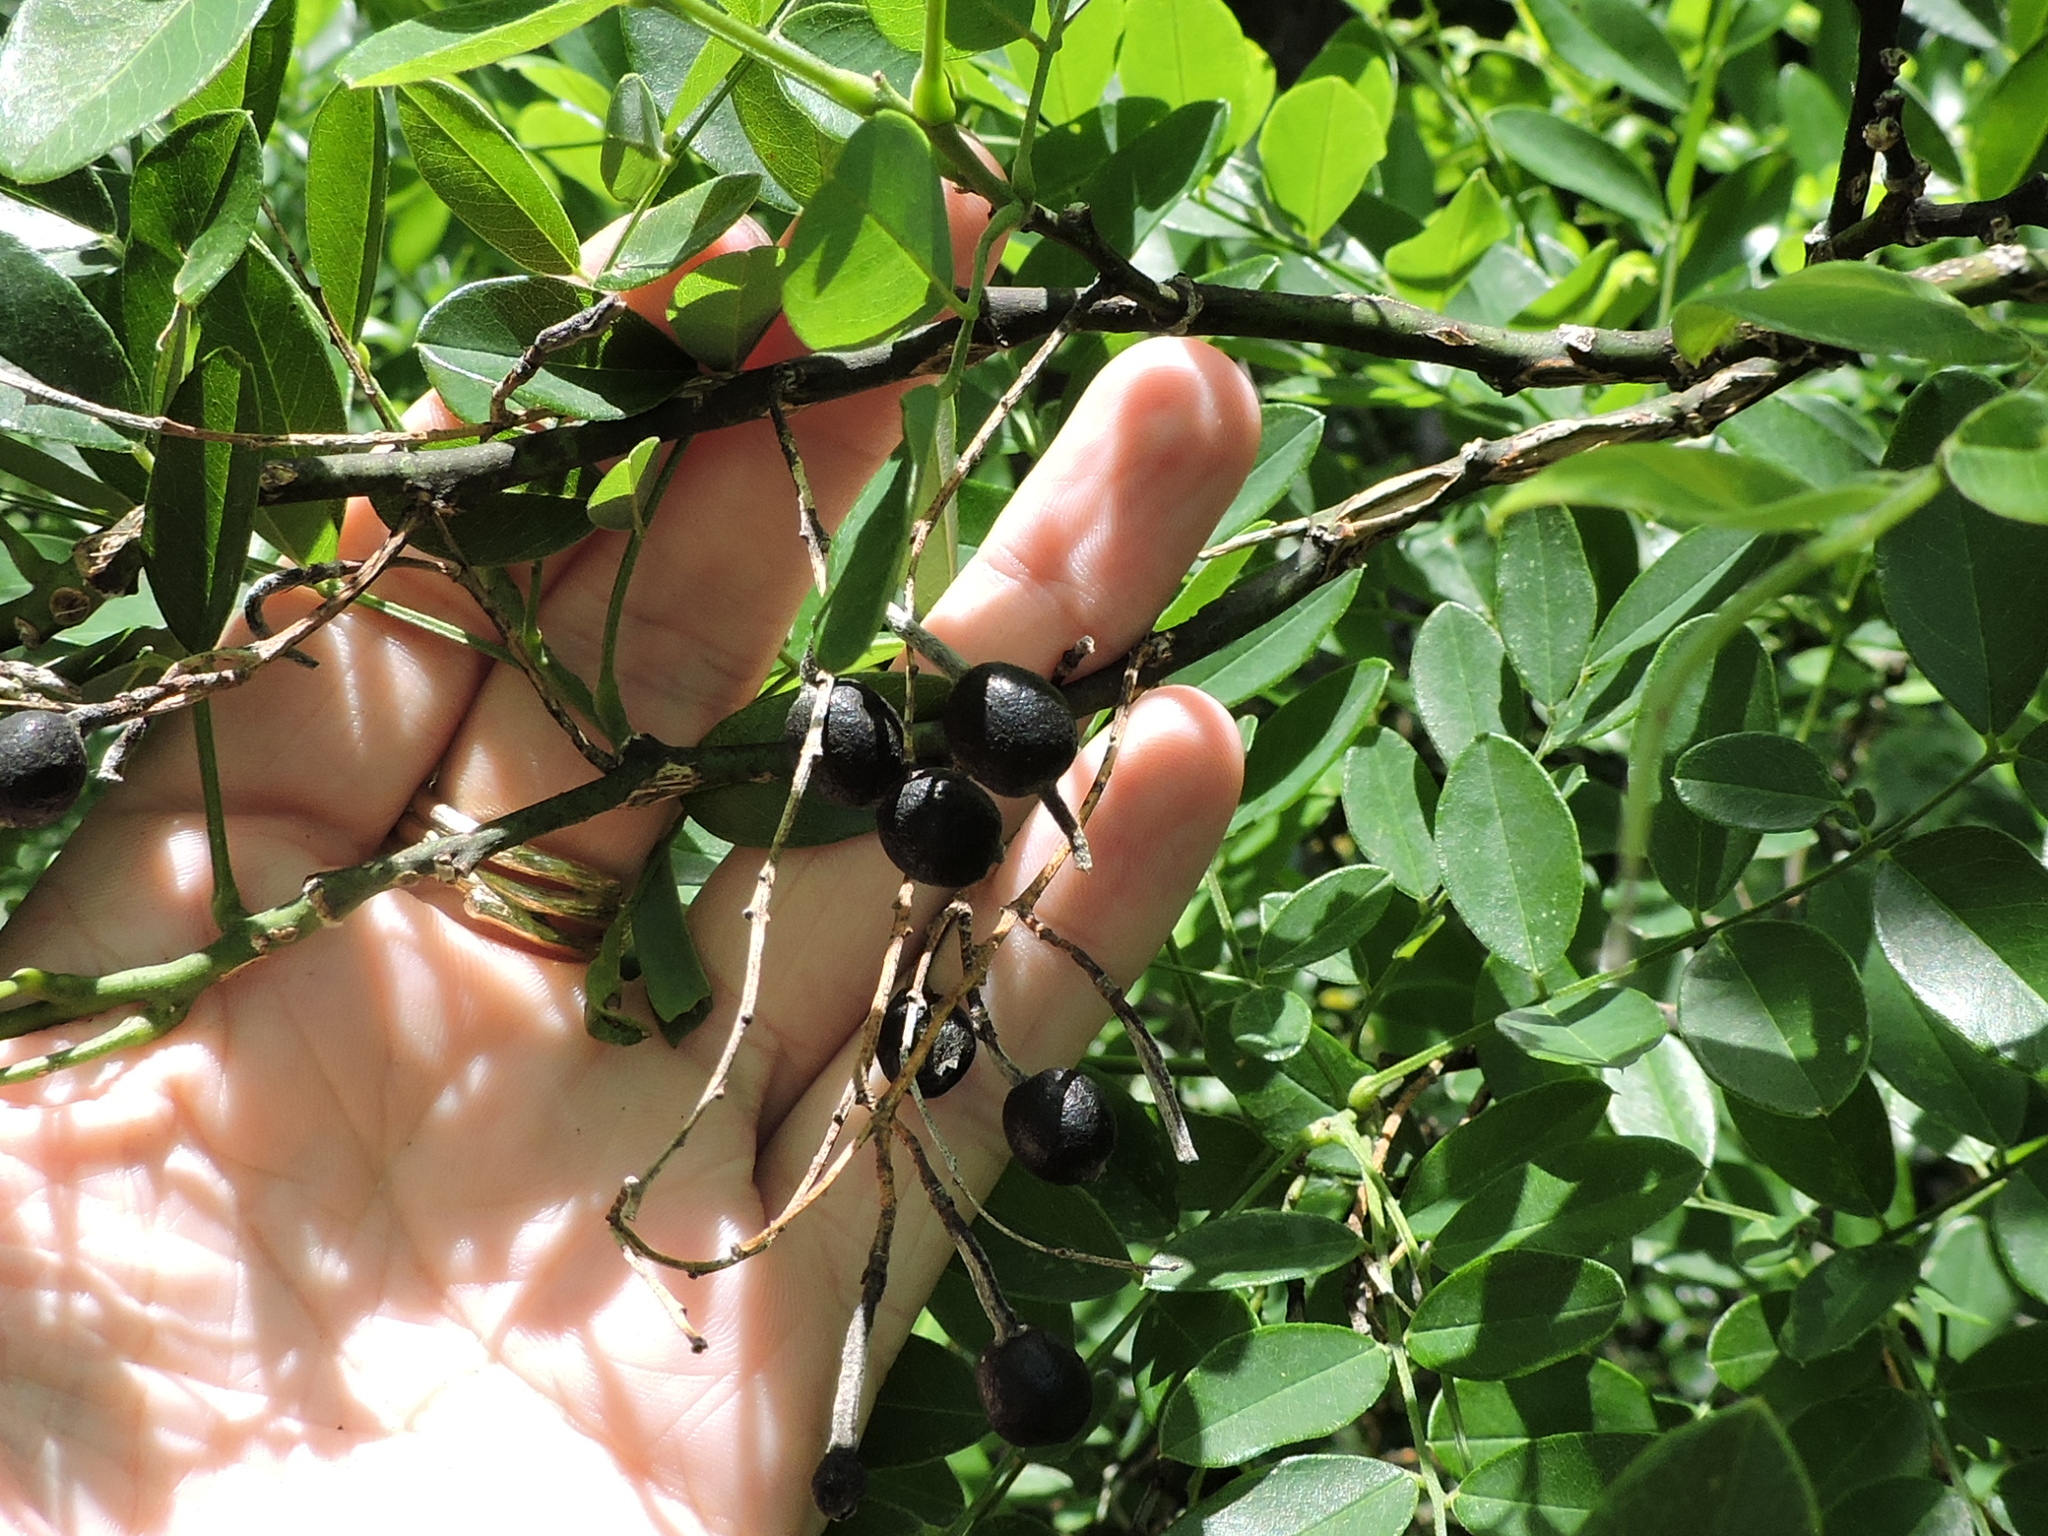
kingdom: Plantae
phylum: Tracheophyta
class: Magnoliopsida
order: Fabales
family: Fabaceae
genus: Styphnolobium
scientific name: Styphnolobium affine
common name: Texas sophora
